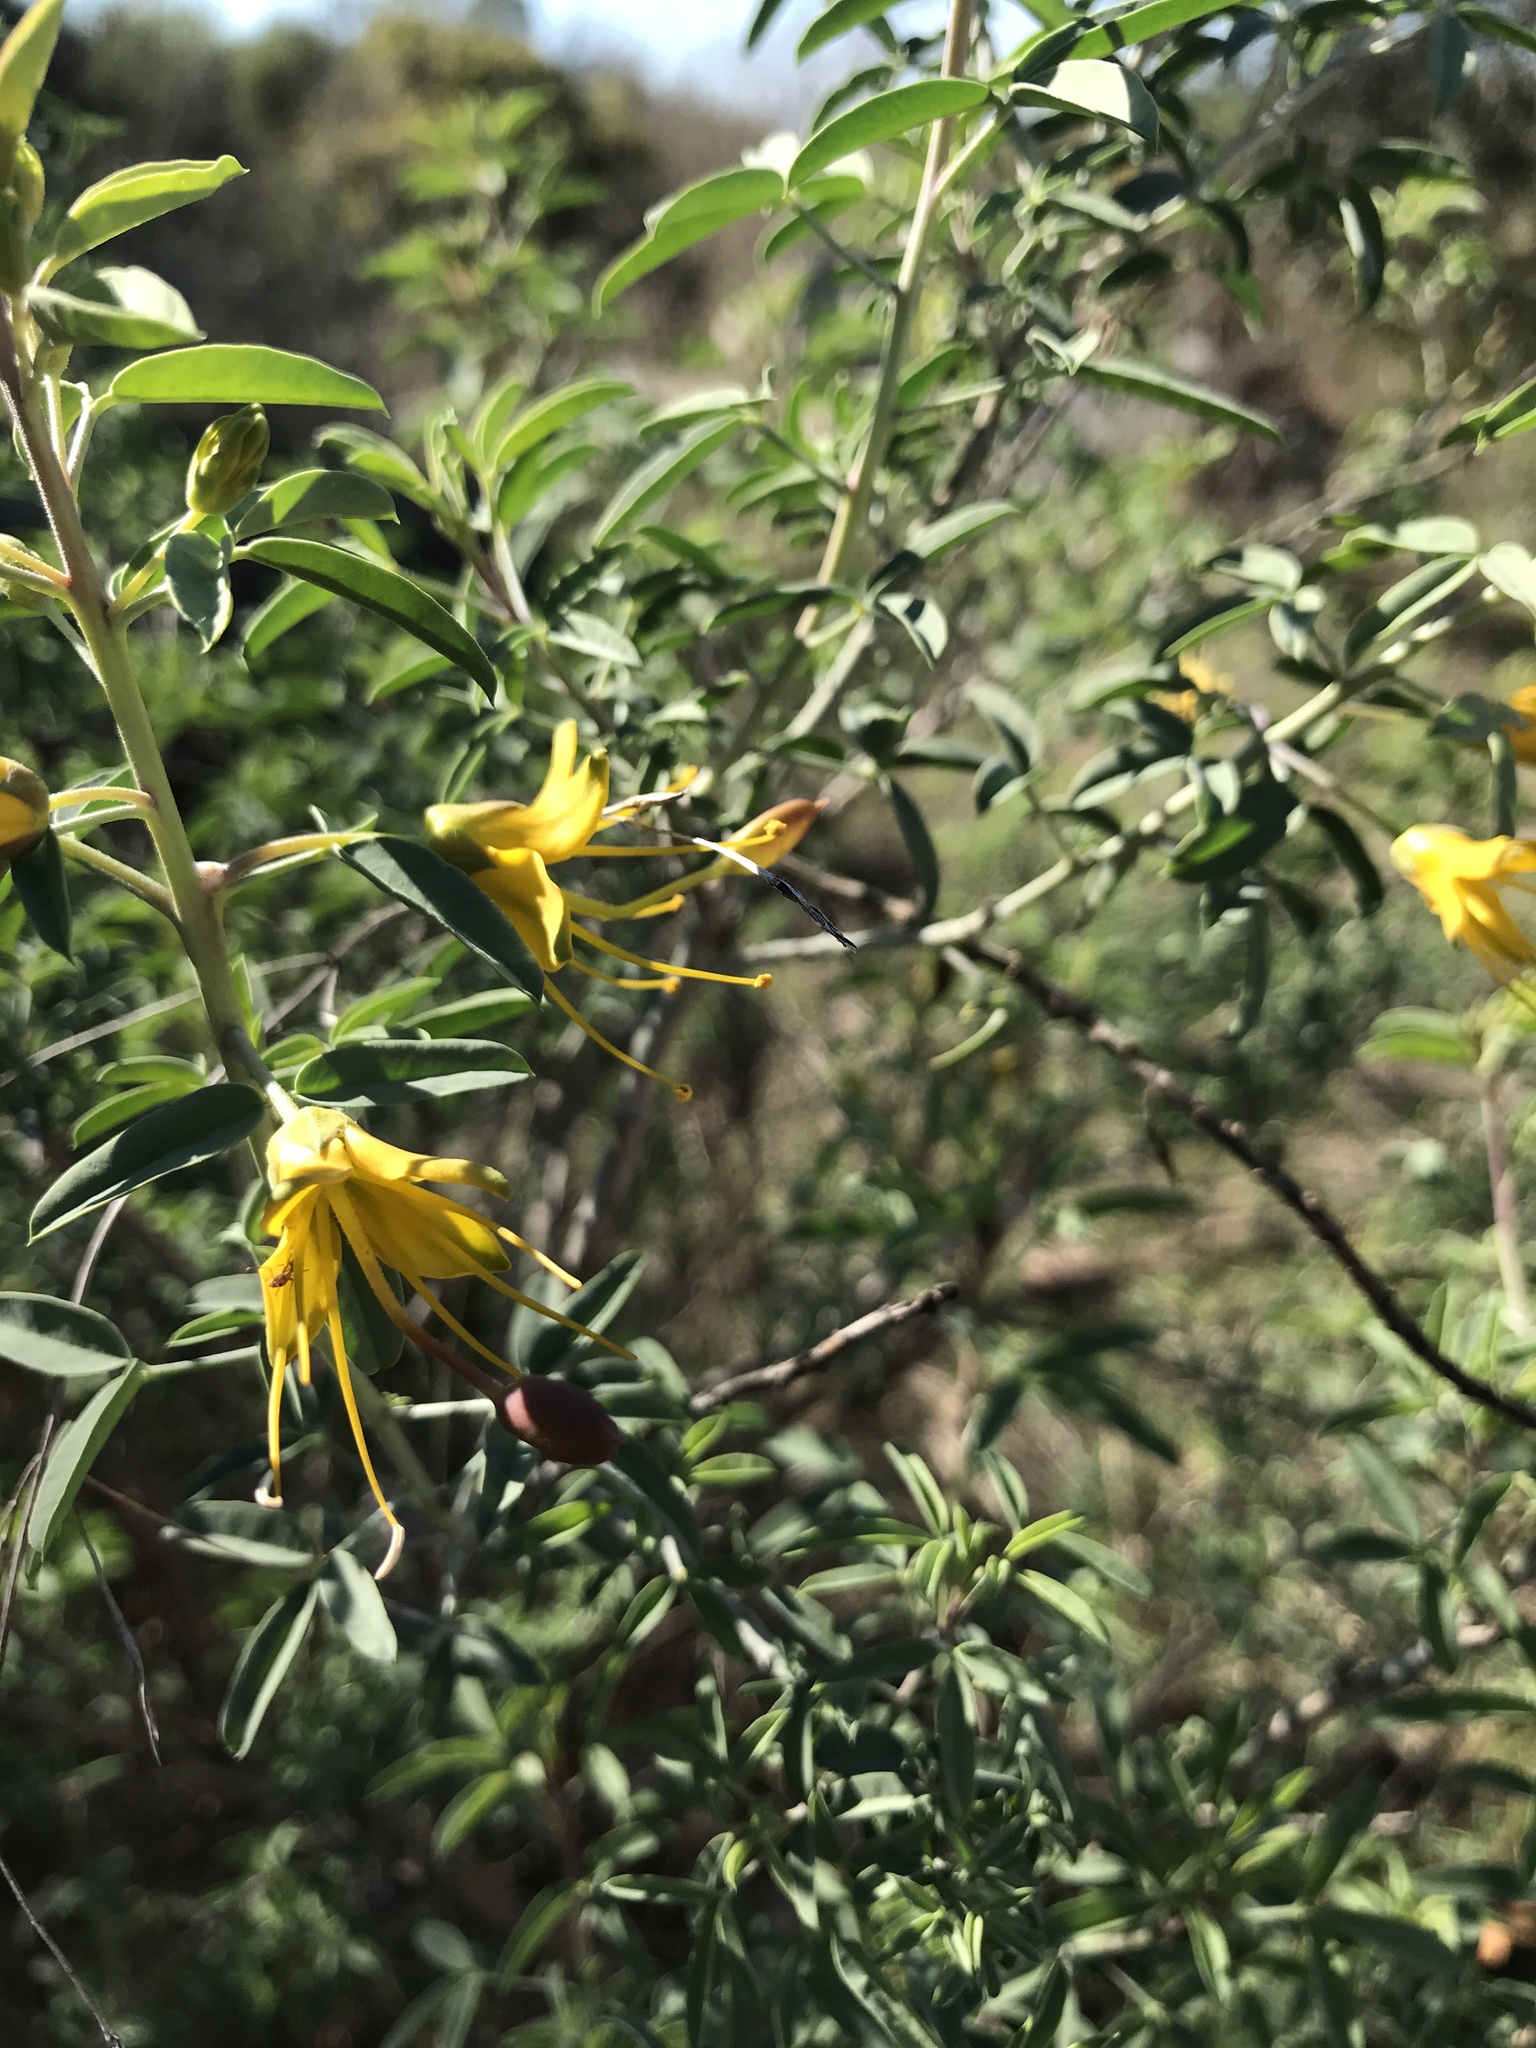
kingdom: Plantae
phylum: Tracheophyta
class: Magnoliopsida
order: Brassicales
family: Cleomaceae
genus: Cleomella
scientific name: Cleomella arborea
